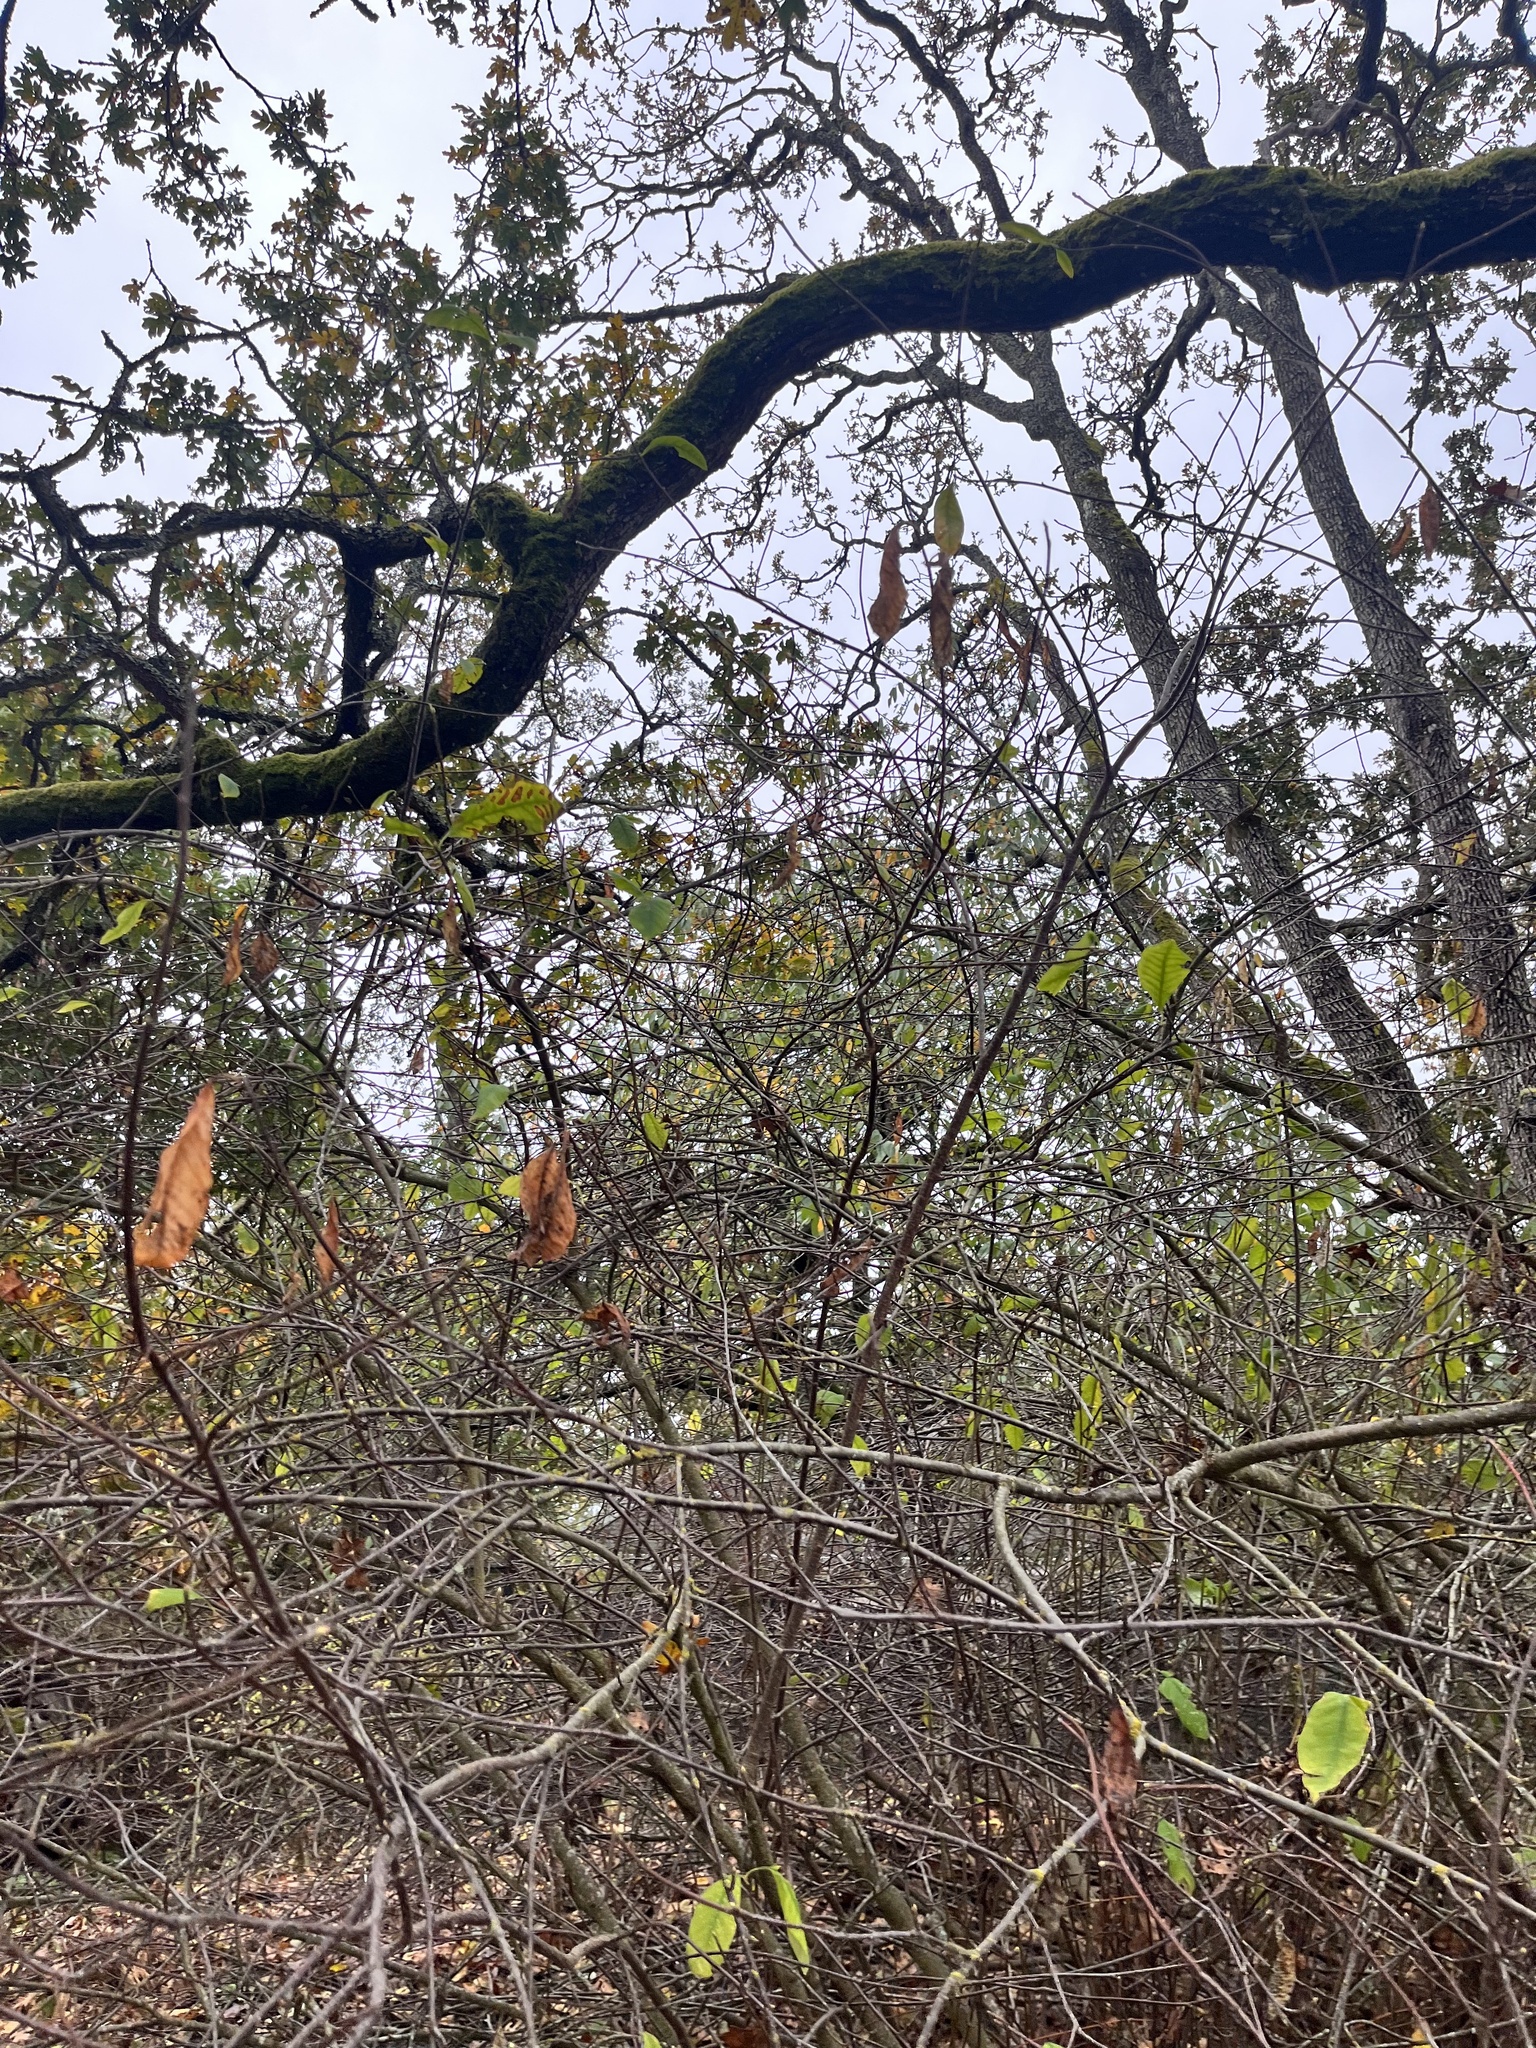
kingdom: Plantae
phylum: Tracheophyta
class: Magnoliopsida
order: Rosales
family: Rosaceae
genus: Oemleria
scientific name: Oemleria cerasiformis
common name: Osoberry
